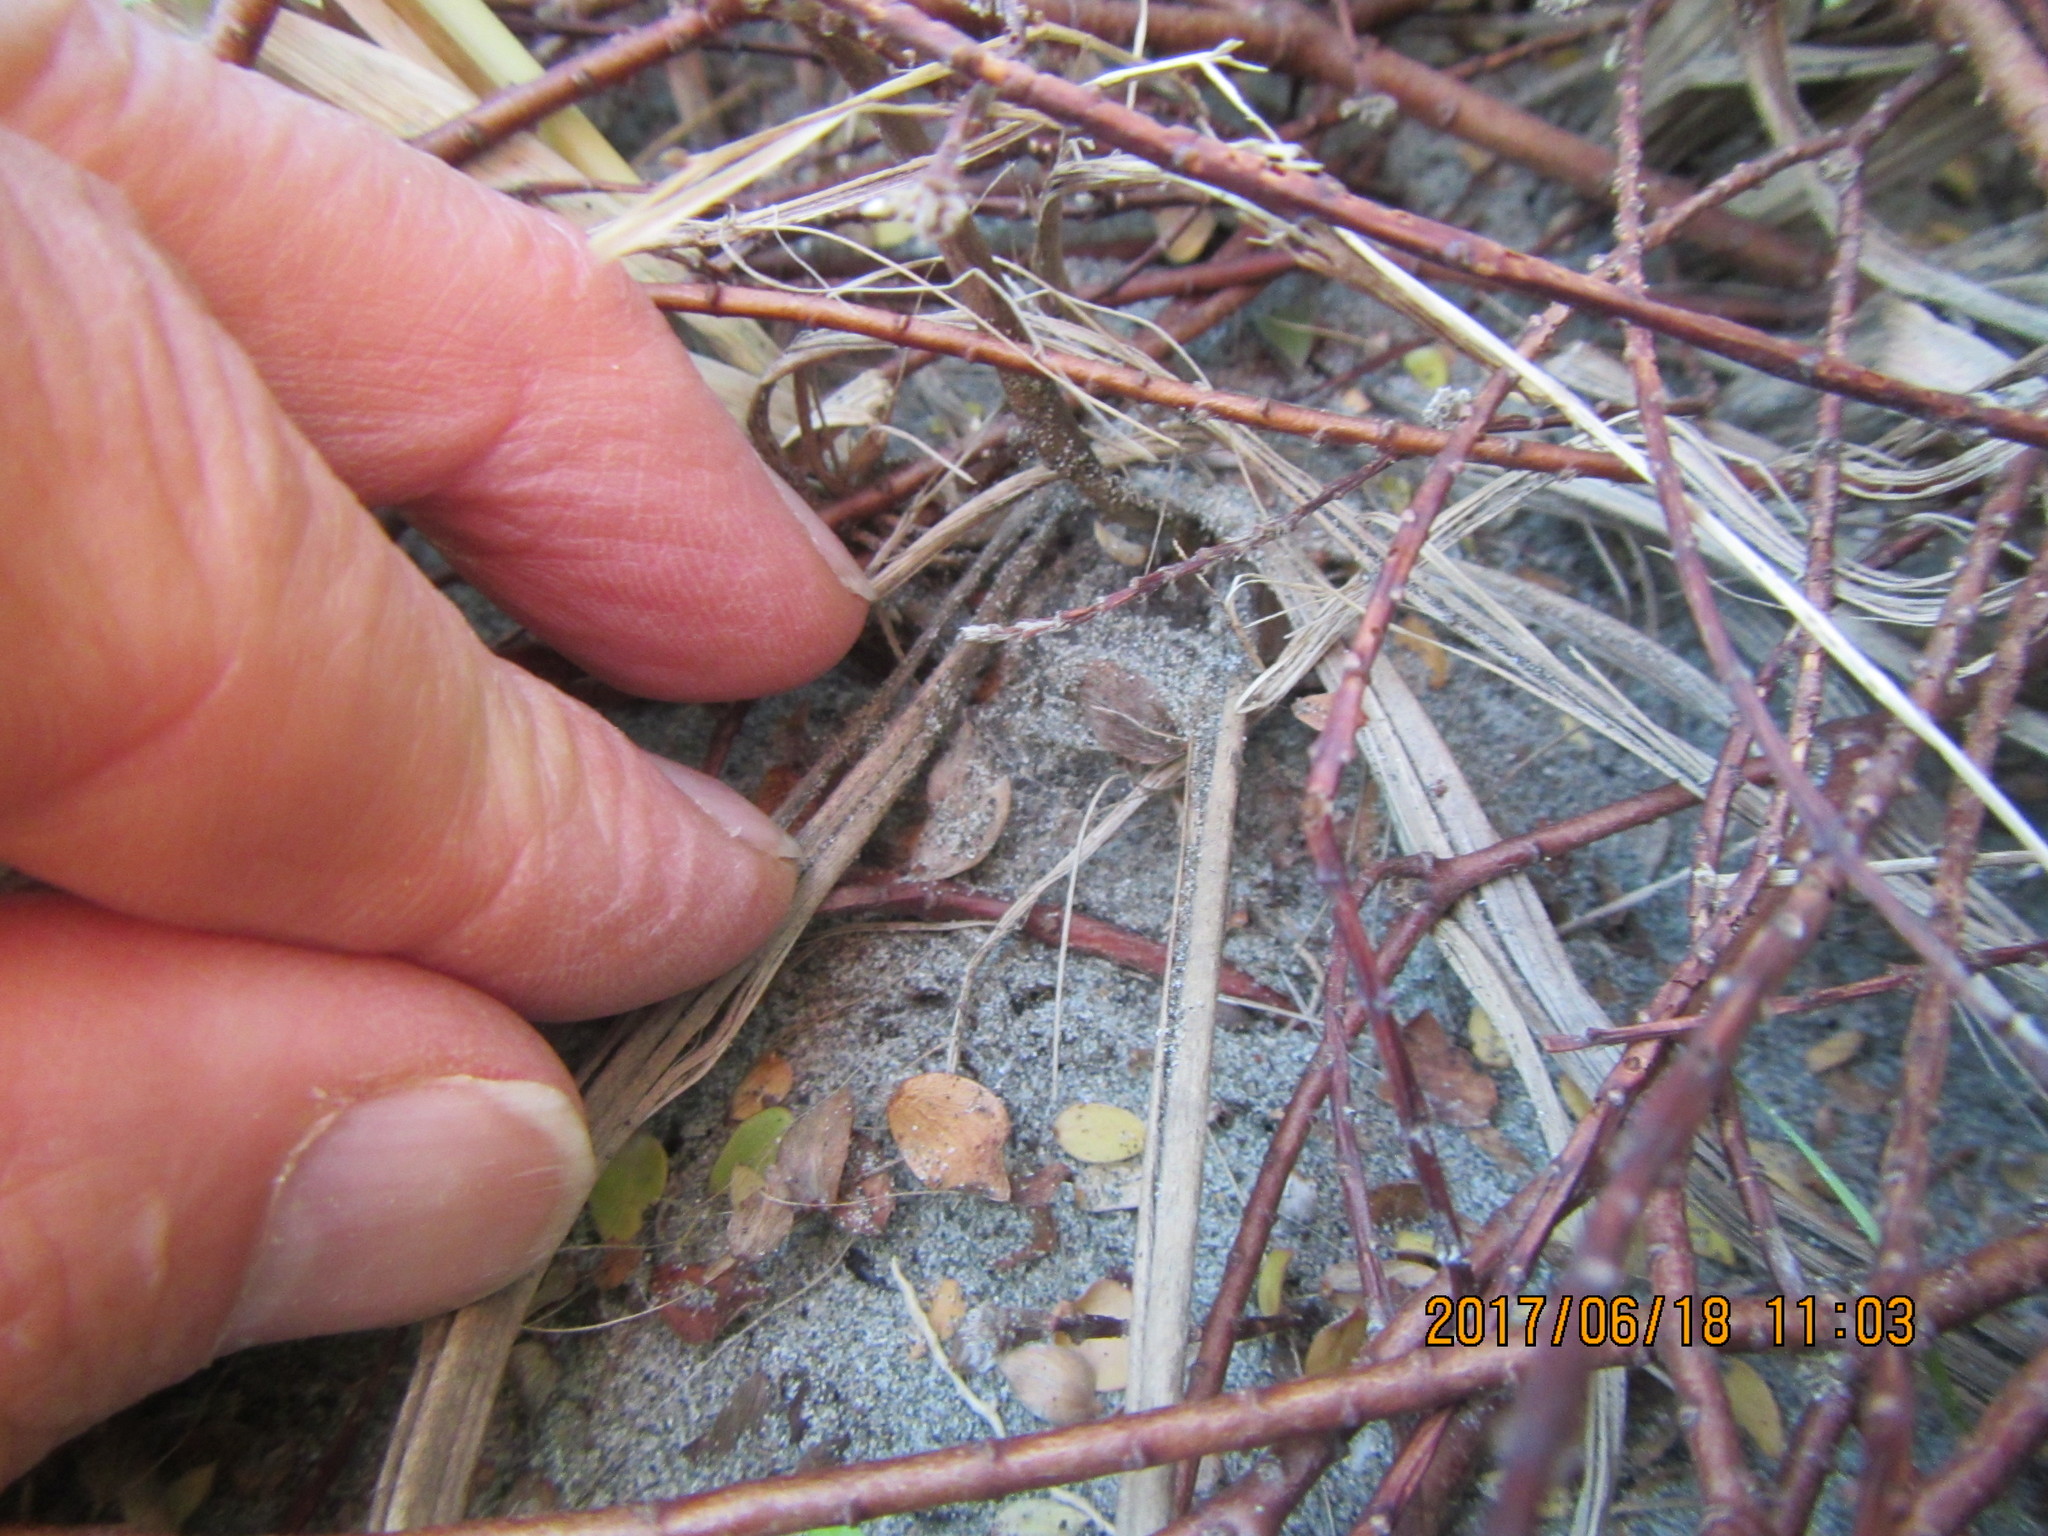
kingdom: Plantae
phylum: Tracheophyta
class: Magnoliopsida
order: Malvales
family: Thymelaeaceae
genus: Pimelea
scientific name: Pimelea villosa
